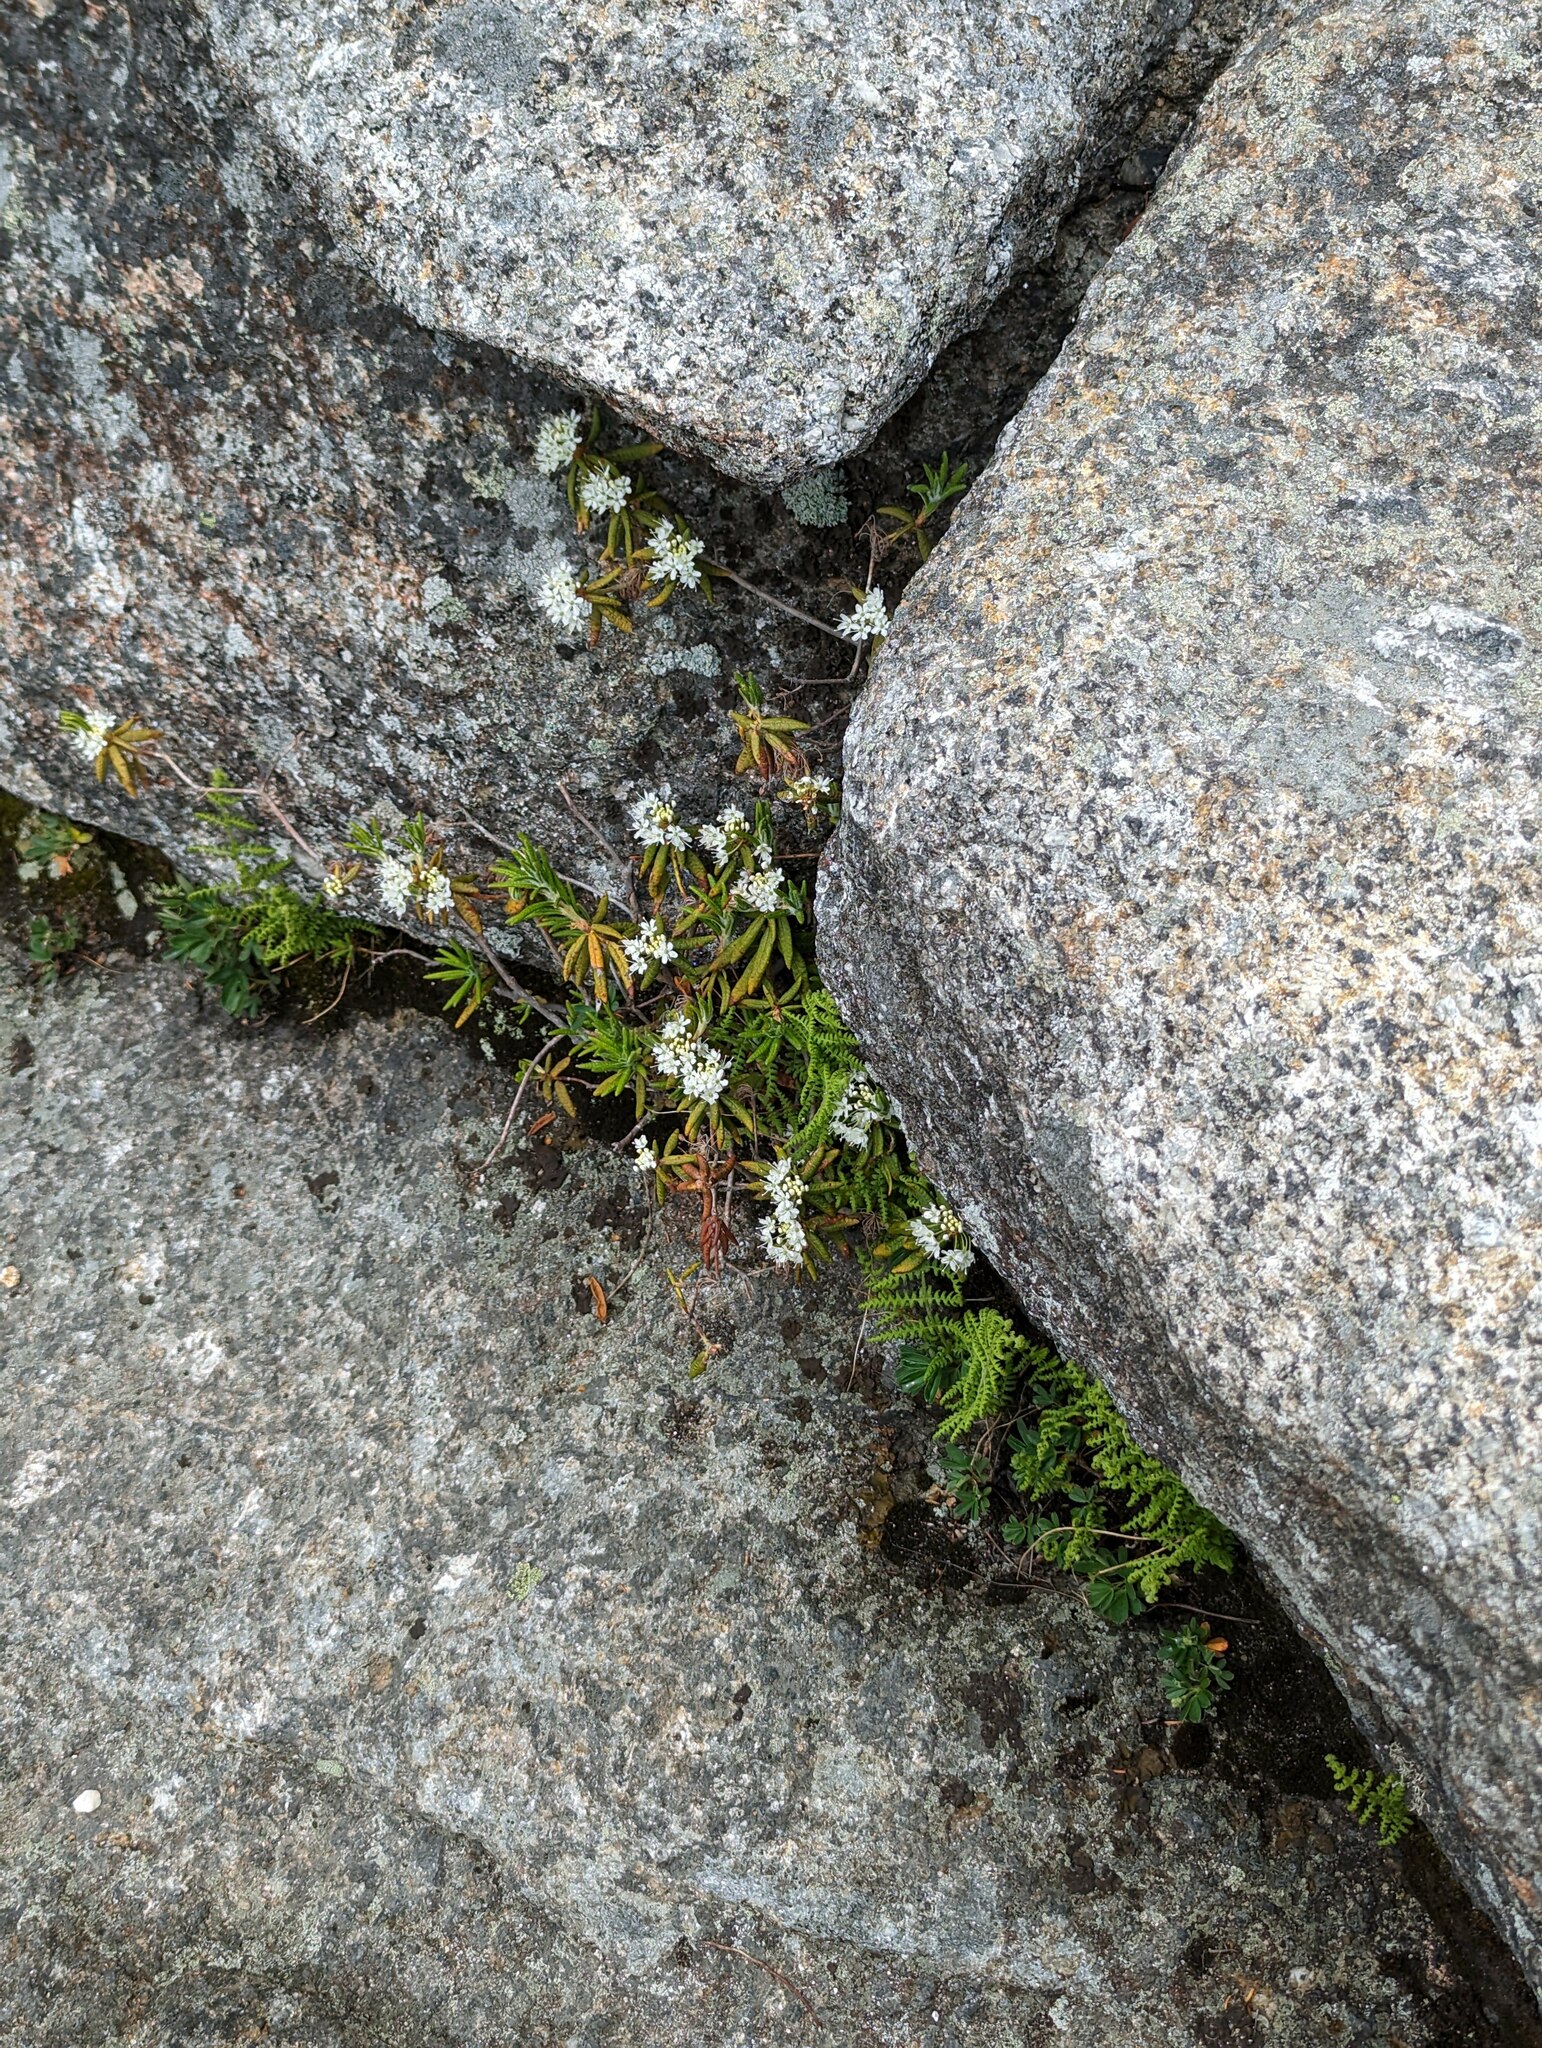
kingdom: Plantae
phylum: Tracheophyta
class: Magnoliopsida
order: Ericales
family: Ericaceae
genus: Rhododendron
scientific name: Rhododendron groenlandicum
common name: Bog labrador tea
